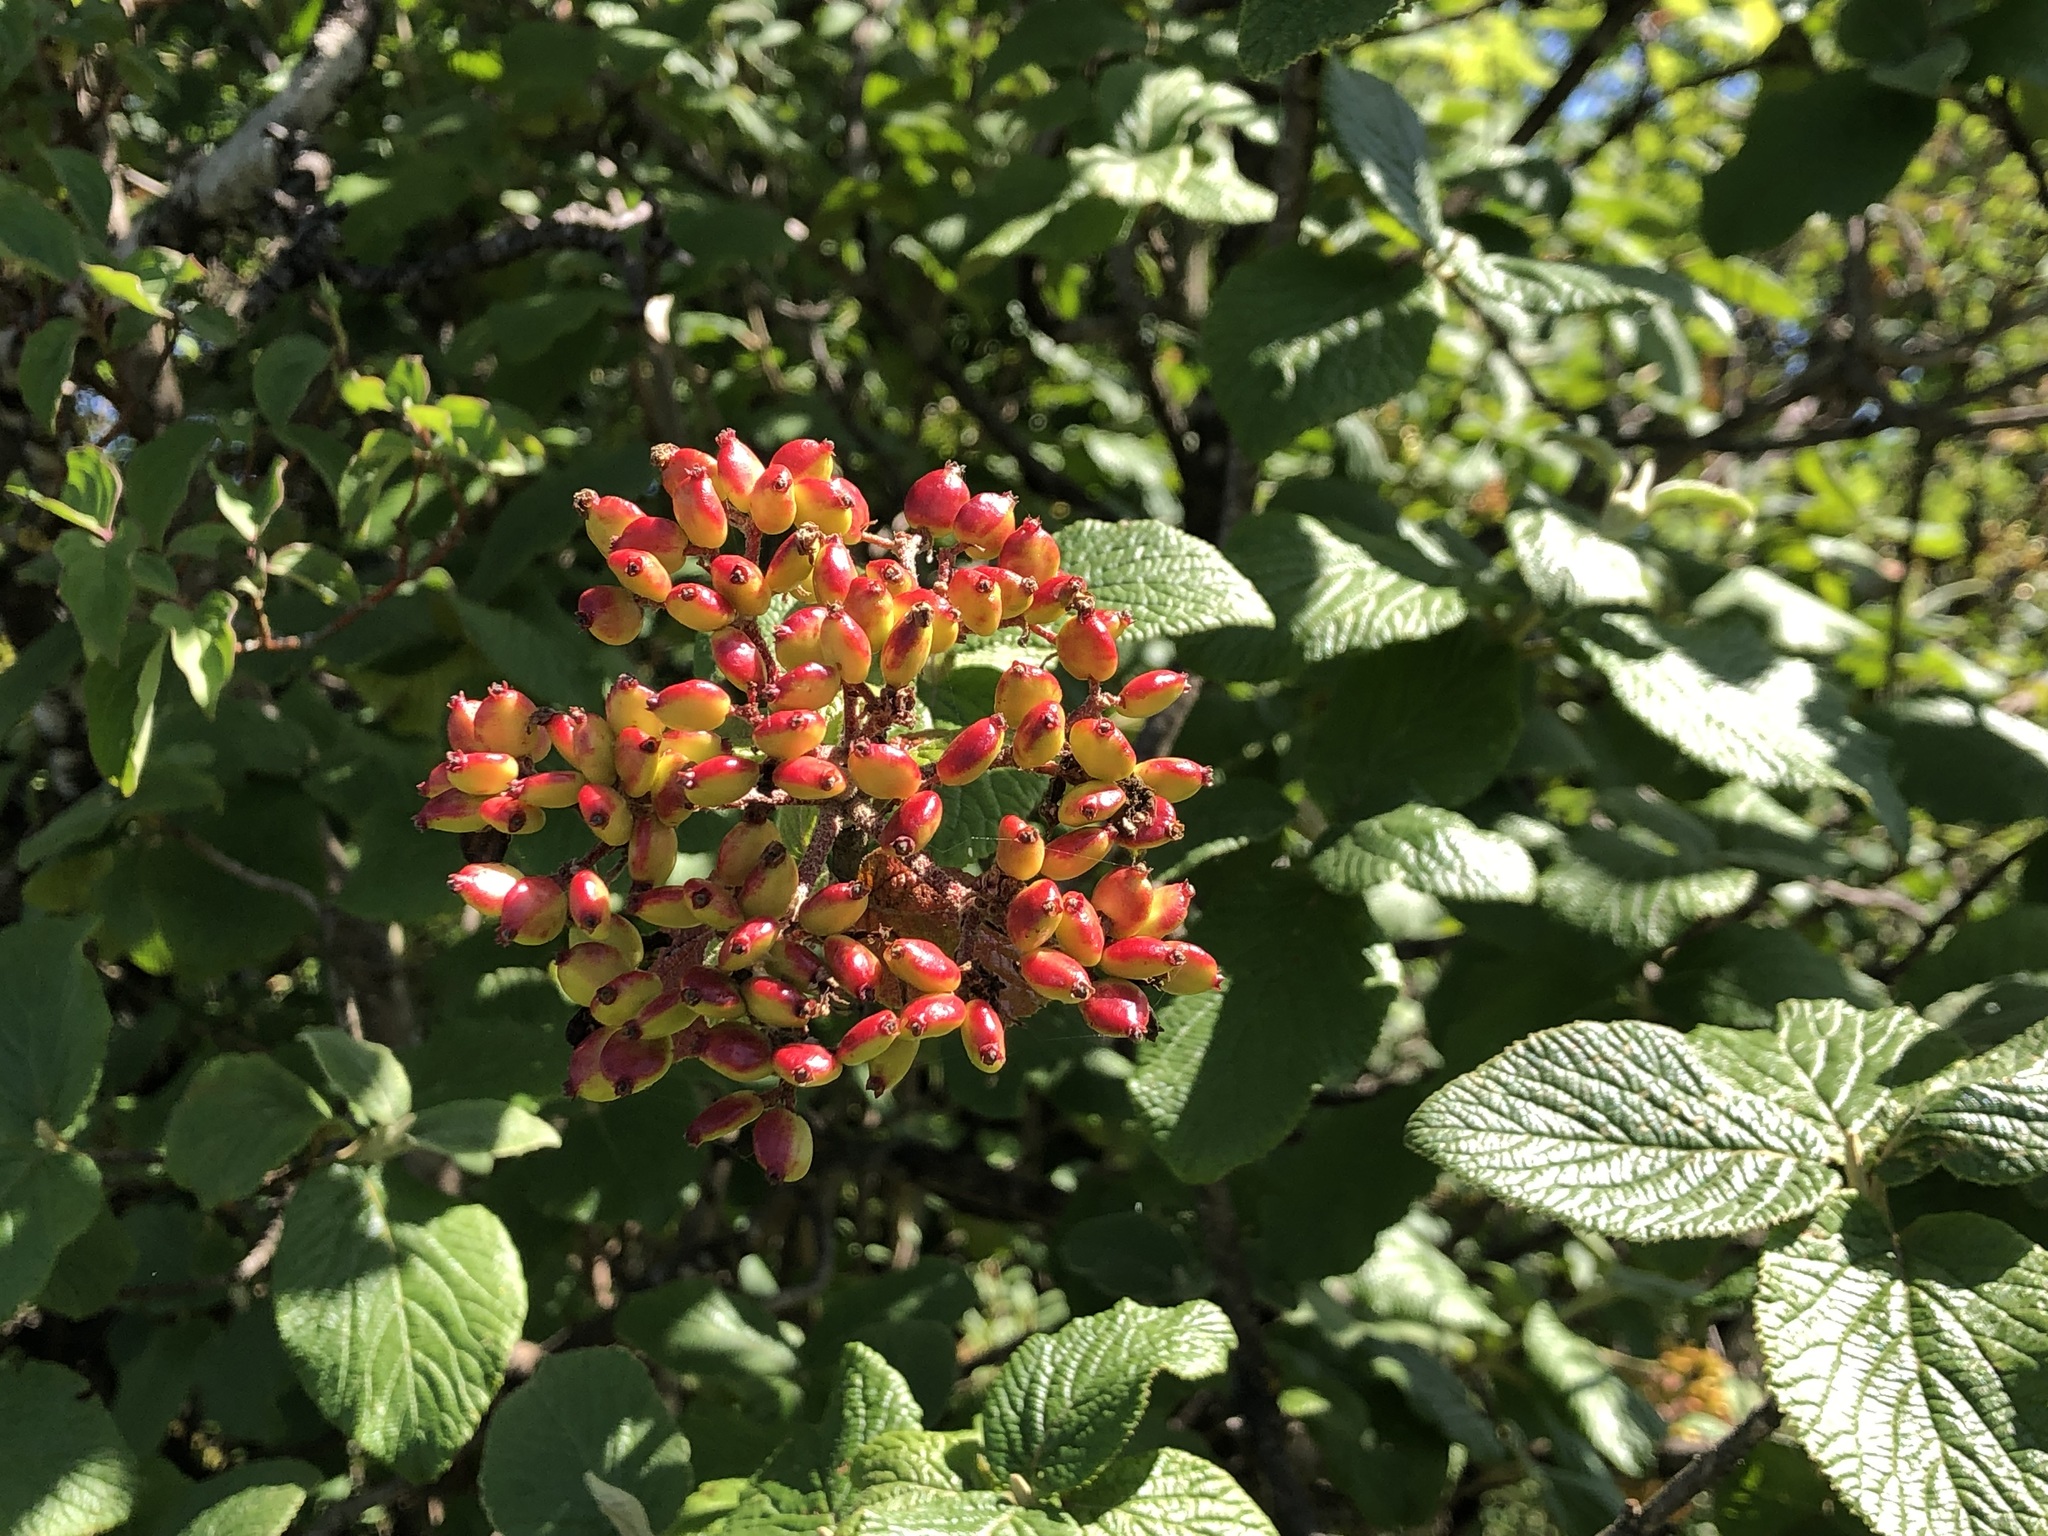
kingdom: Plantae
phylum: Tracheophyta
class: Magnoliopsida
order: Dipsacales
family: Viburnaceae
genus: Viburnum
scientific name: Viburnum lantana
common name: Wayfaring tree
